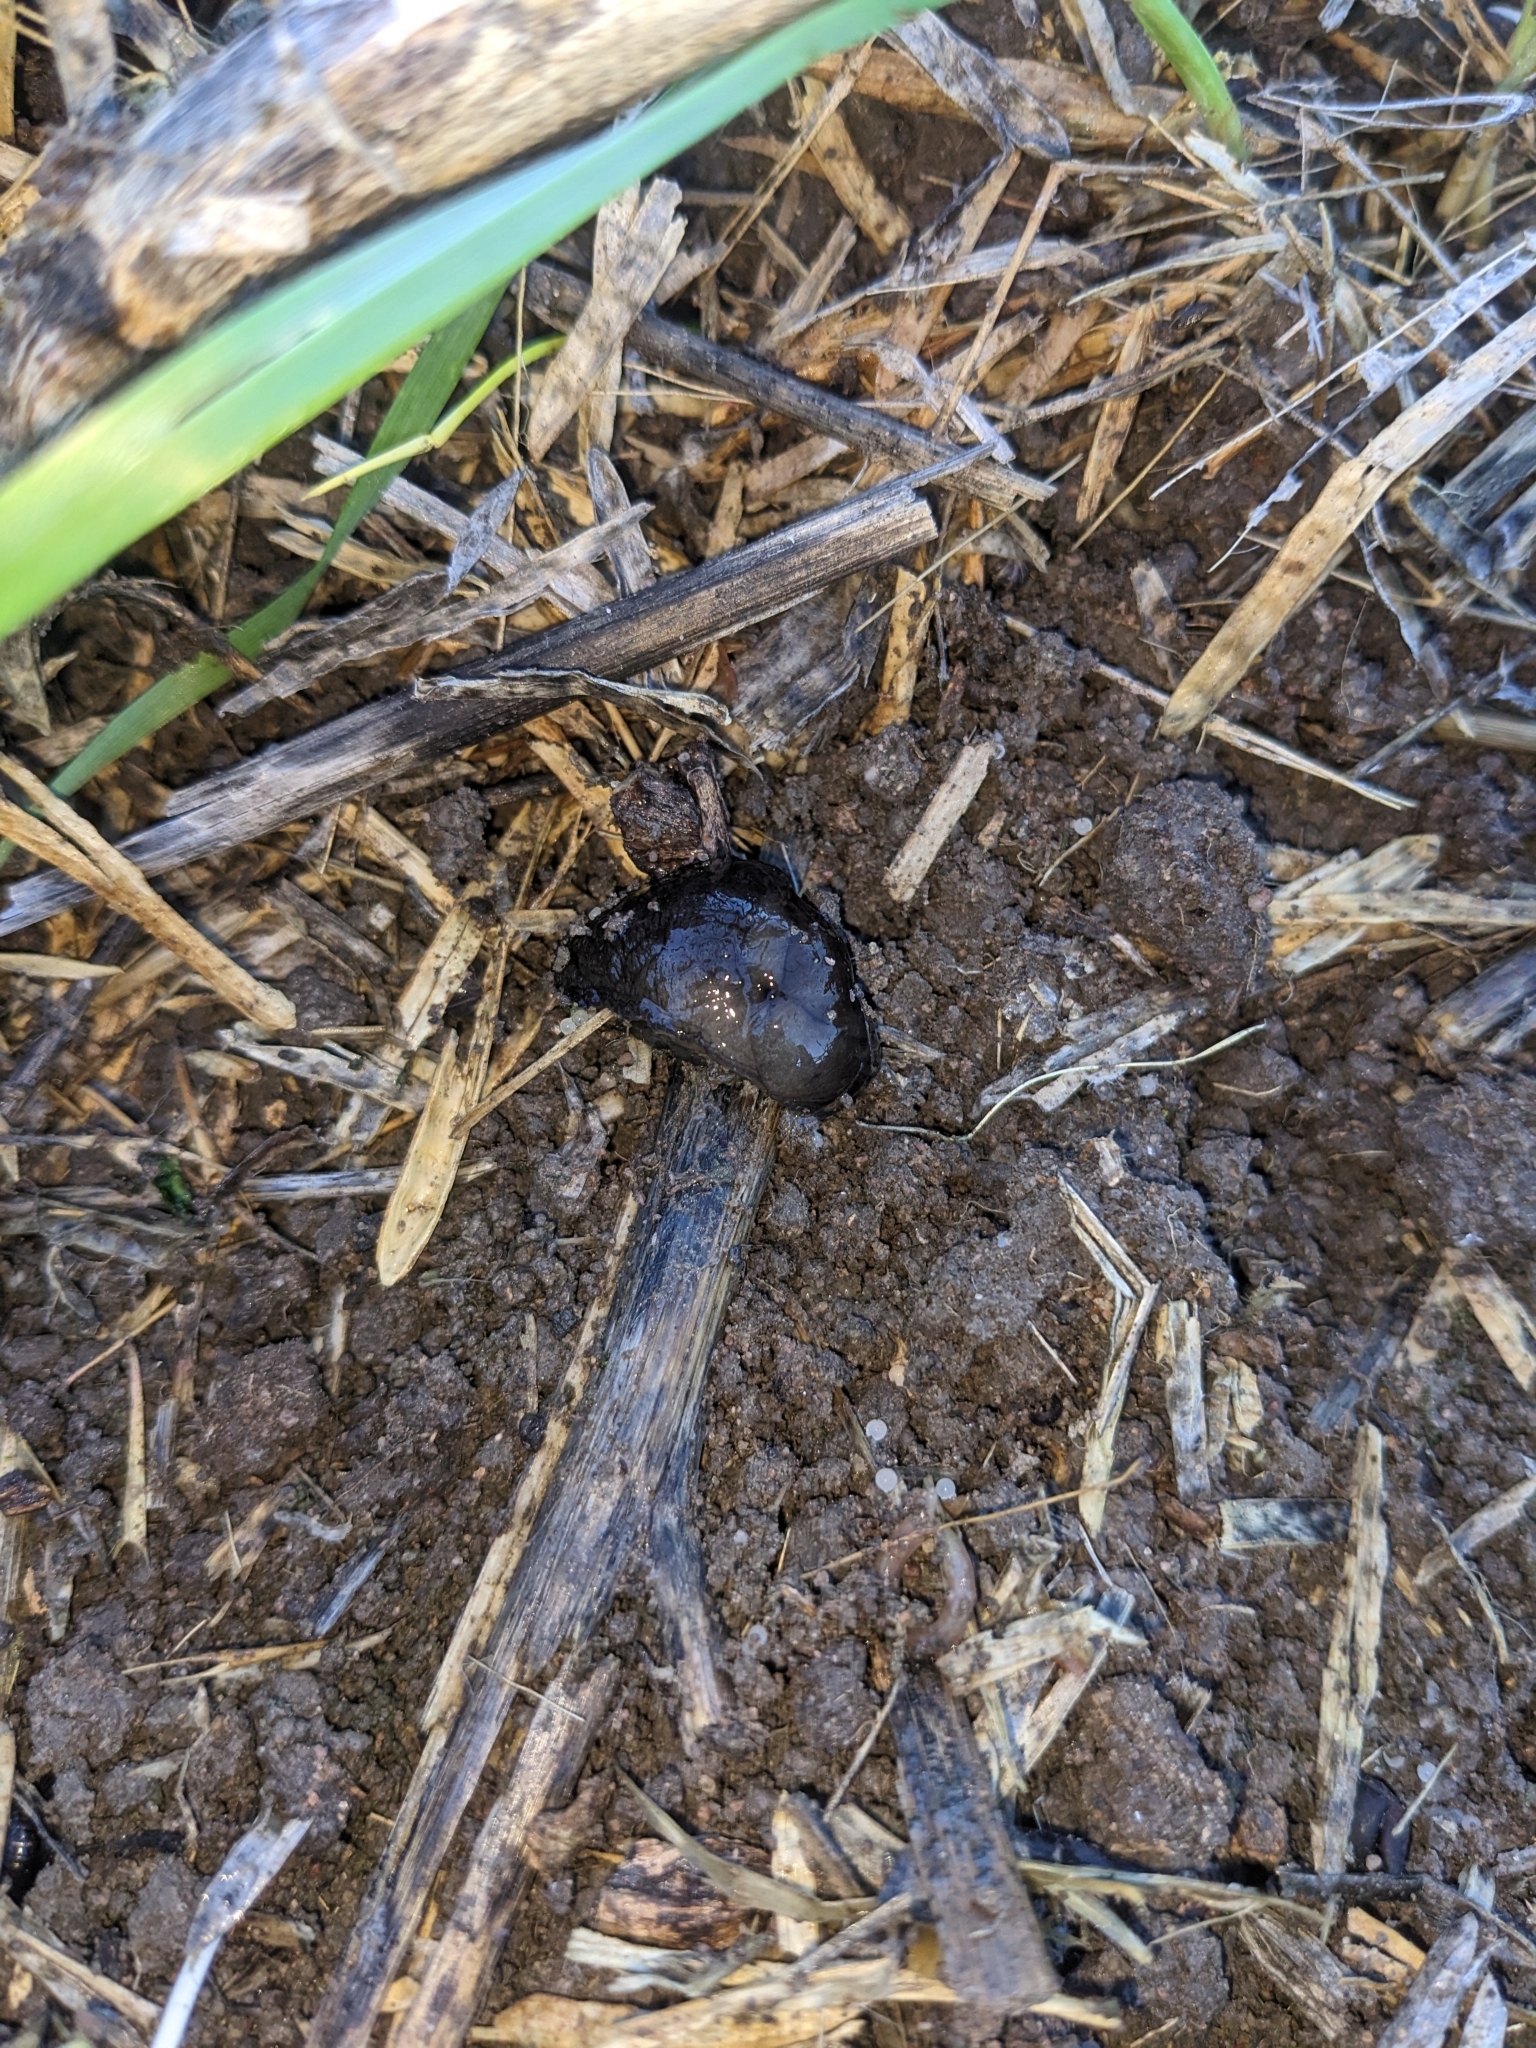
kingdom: Animalia
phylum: Mollusca
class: Gastropoda
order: Stylommatophora
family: Milacidae
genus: Milax
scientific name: Milax gagates
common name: Greenhouse slug
